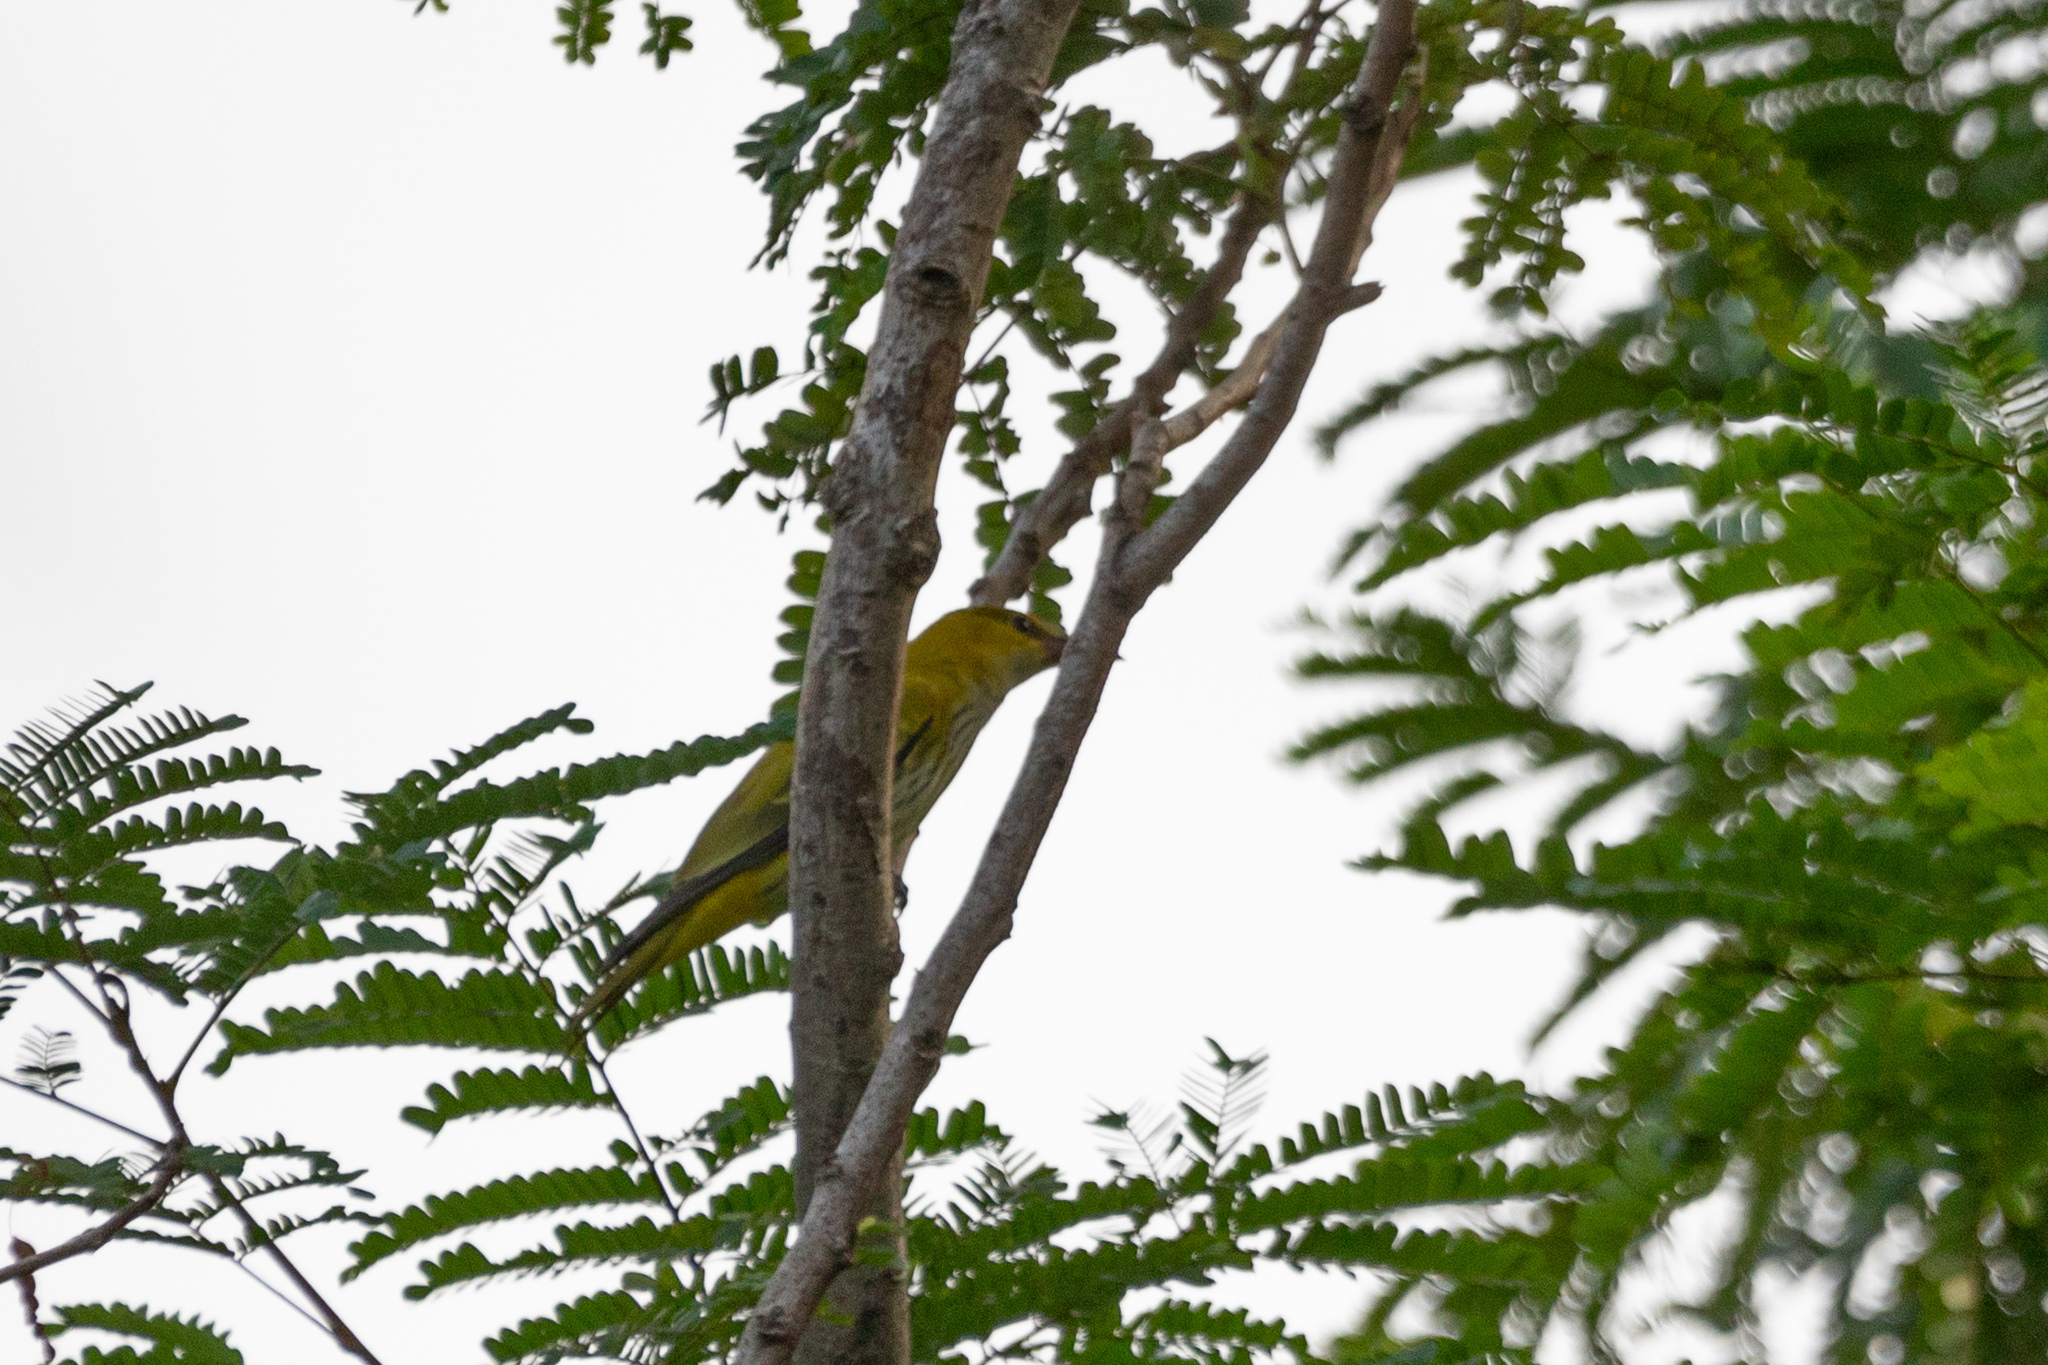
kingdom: Animalia
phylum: Chordata
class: Aves
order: Passeriformes
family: Oriolidae
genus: Oriolus
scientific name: Oriolus chinensis
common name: Black-naped oriole
